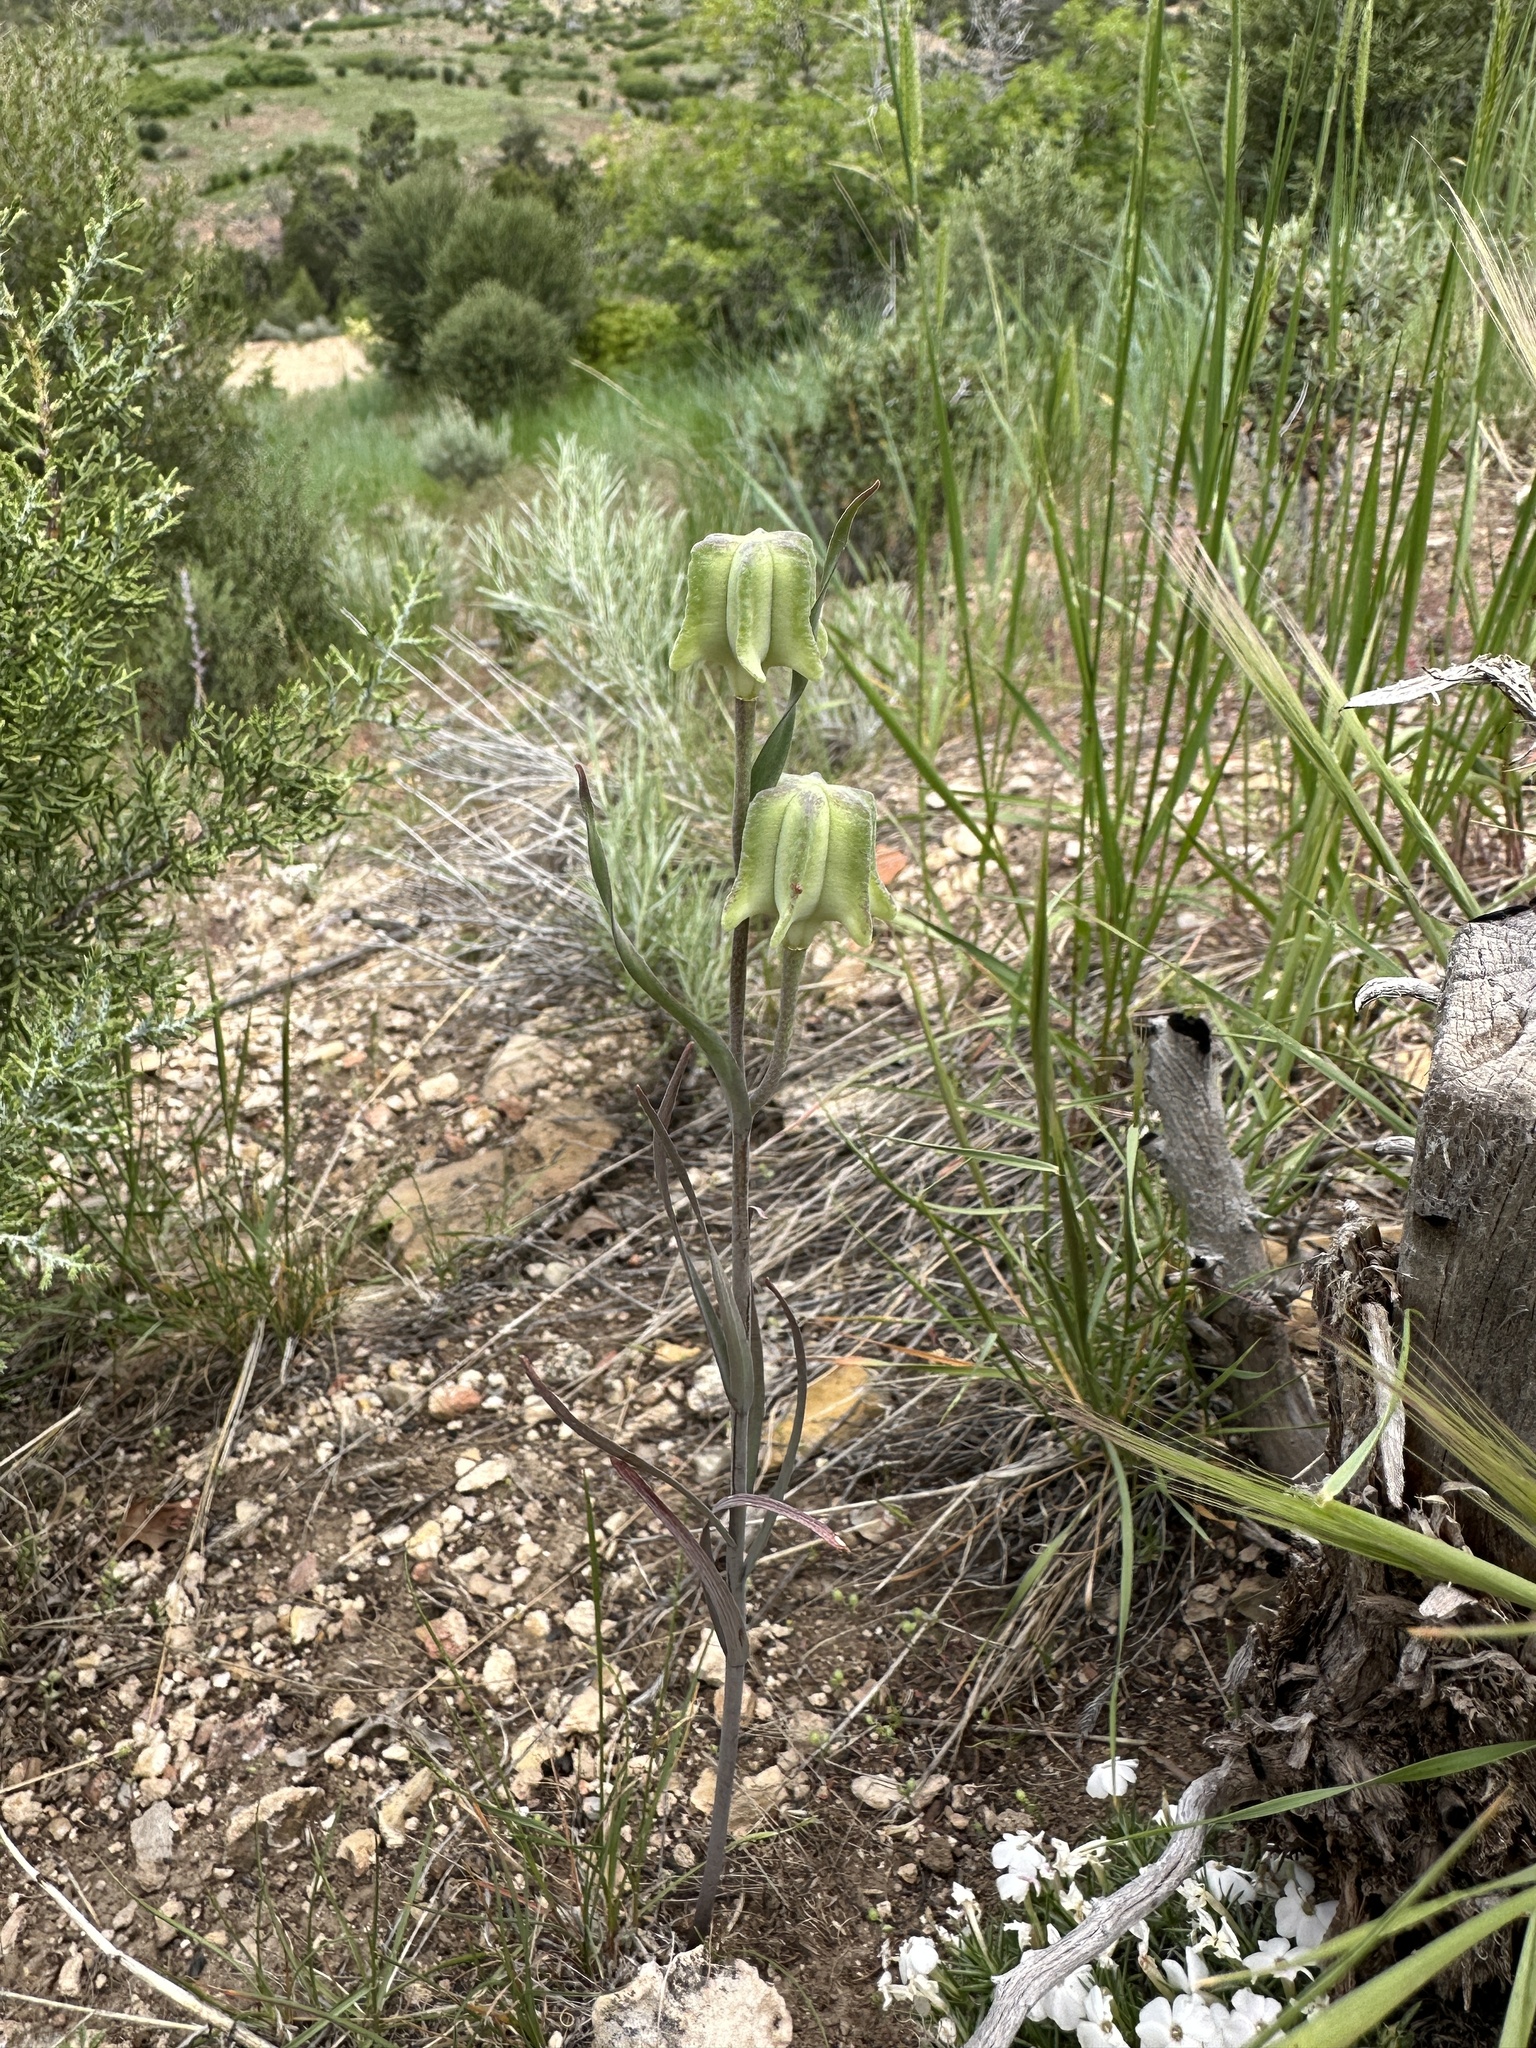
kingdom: Plantae
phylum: Tracheophyta
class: Liliopsida
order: Liliales
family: Liliaceae
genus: Fritillaria
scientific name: Fritillaria atropurpurea
